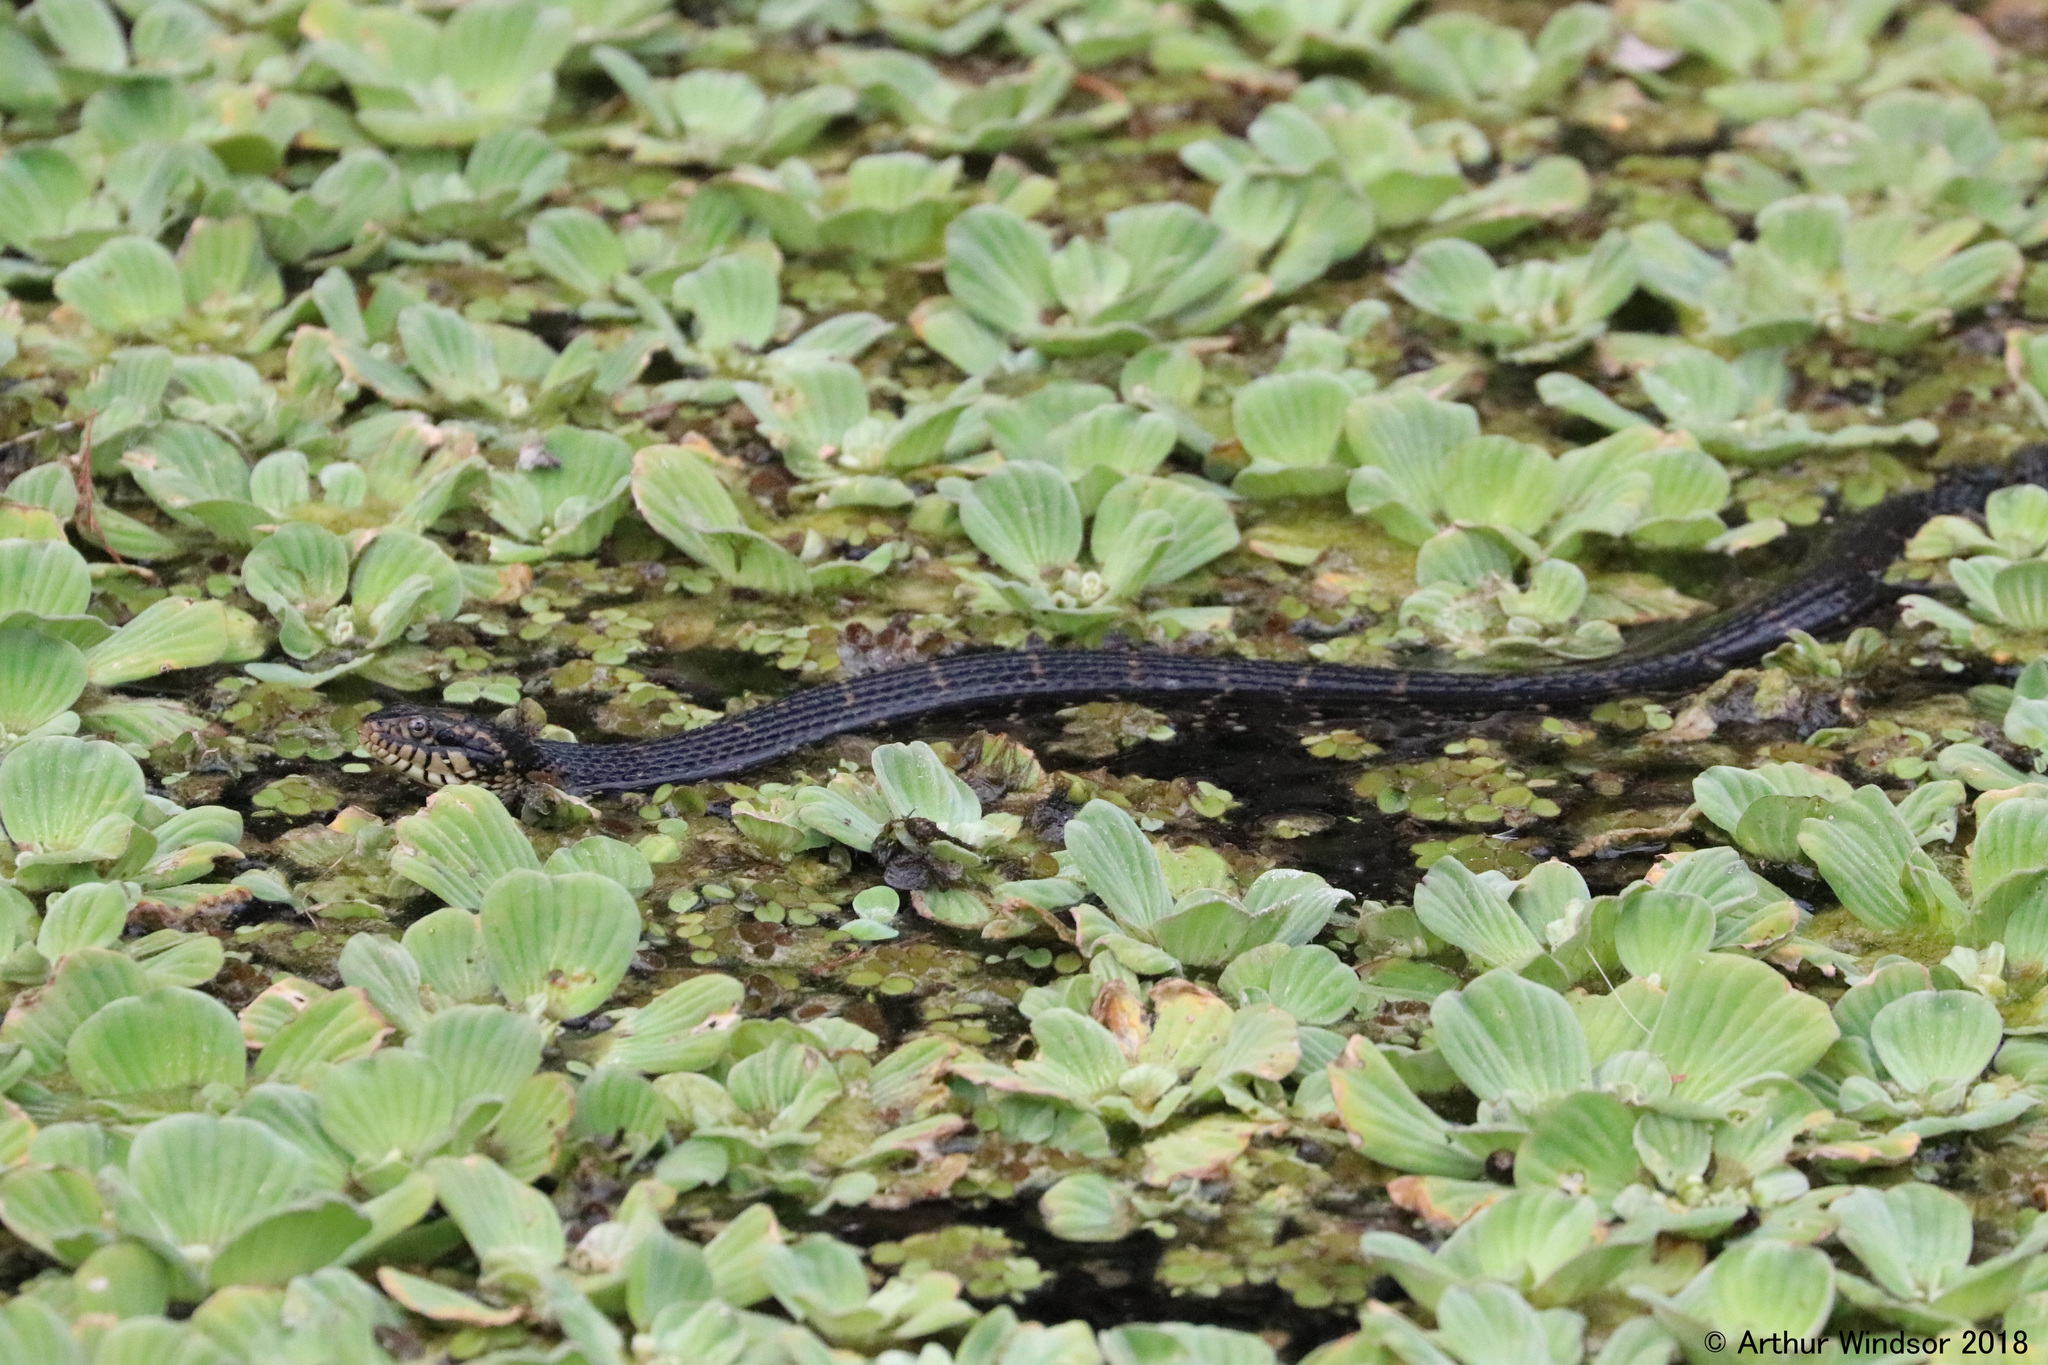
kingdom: Animalia
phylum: Chordata
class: Squamata
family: Colubridae
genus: Nerodia
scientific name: Nerodia fasciata
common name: Southern water snake
